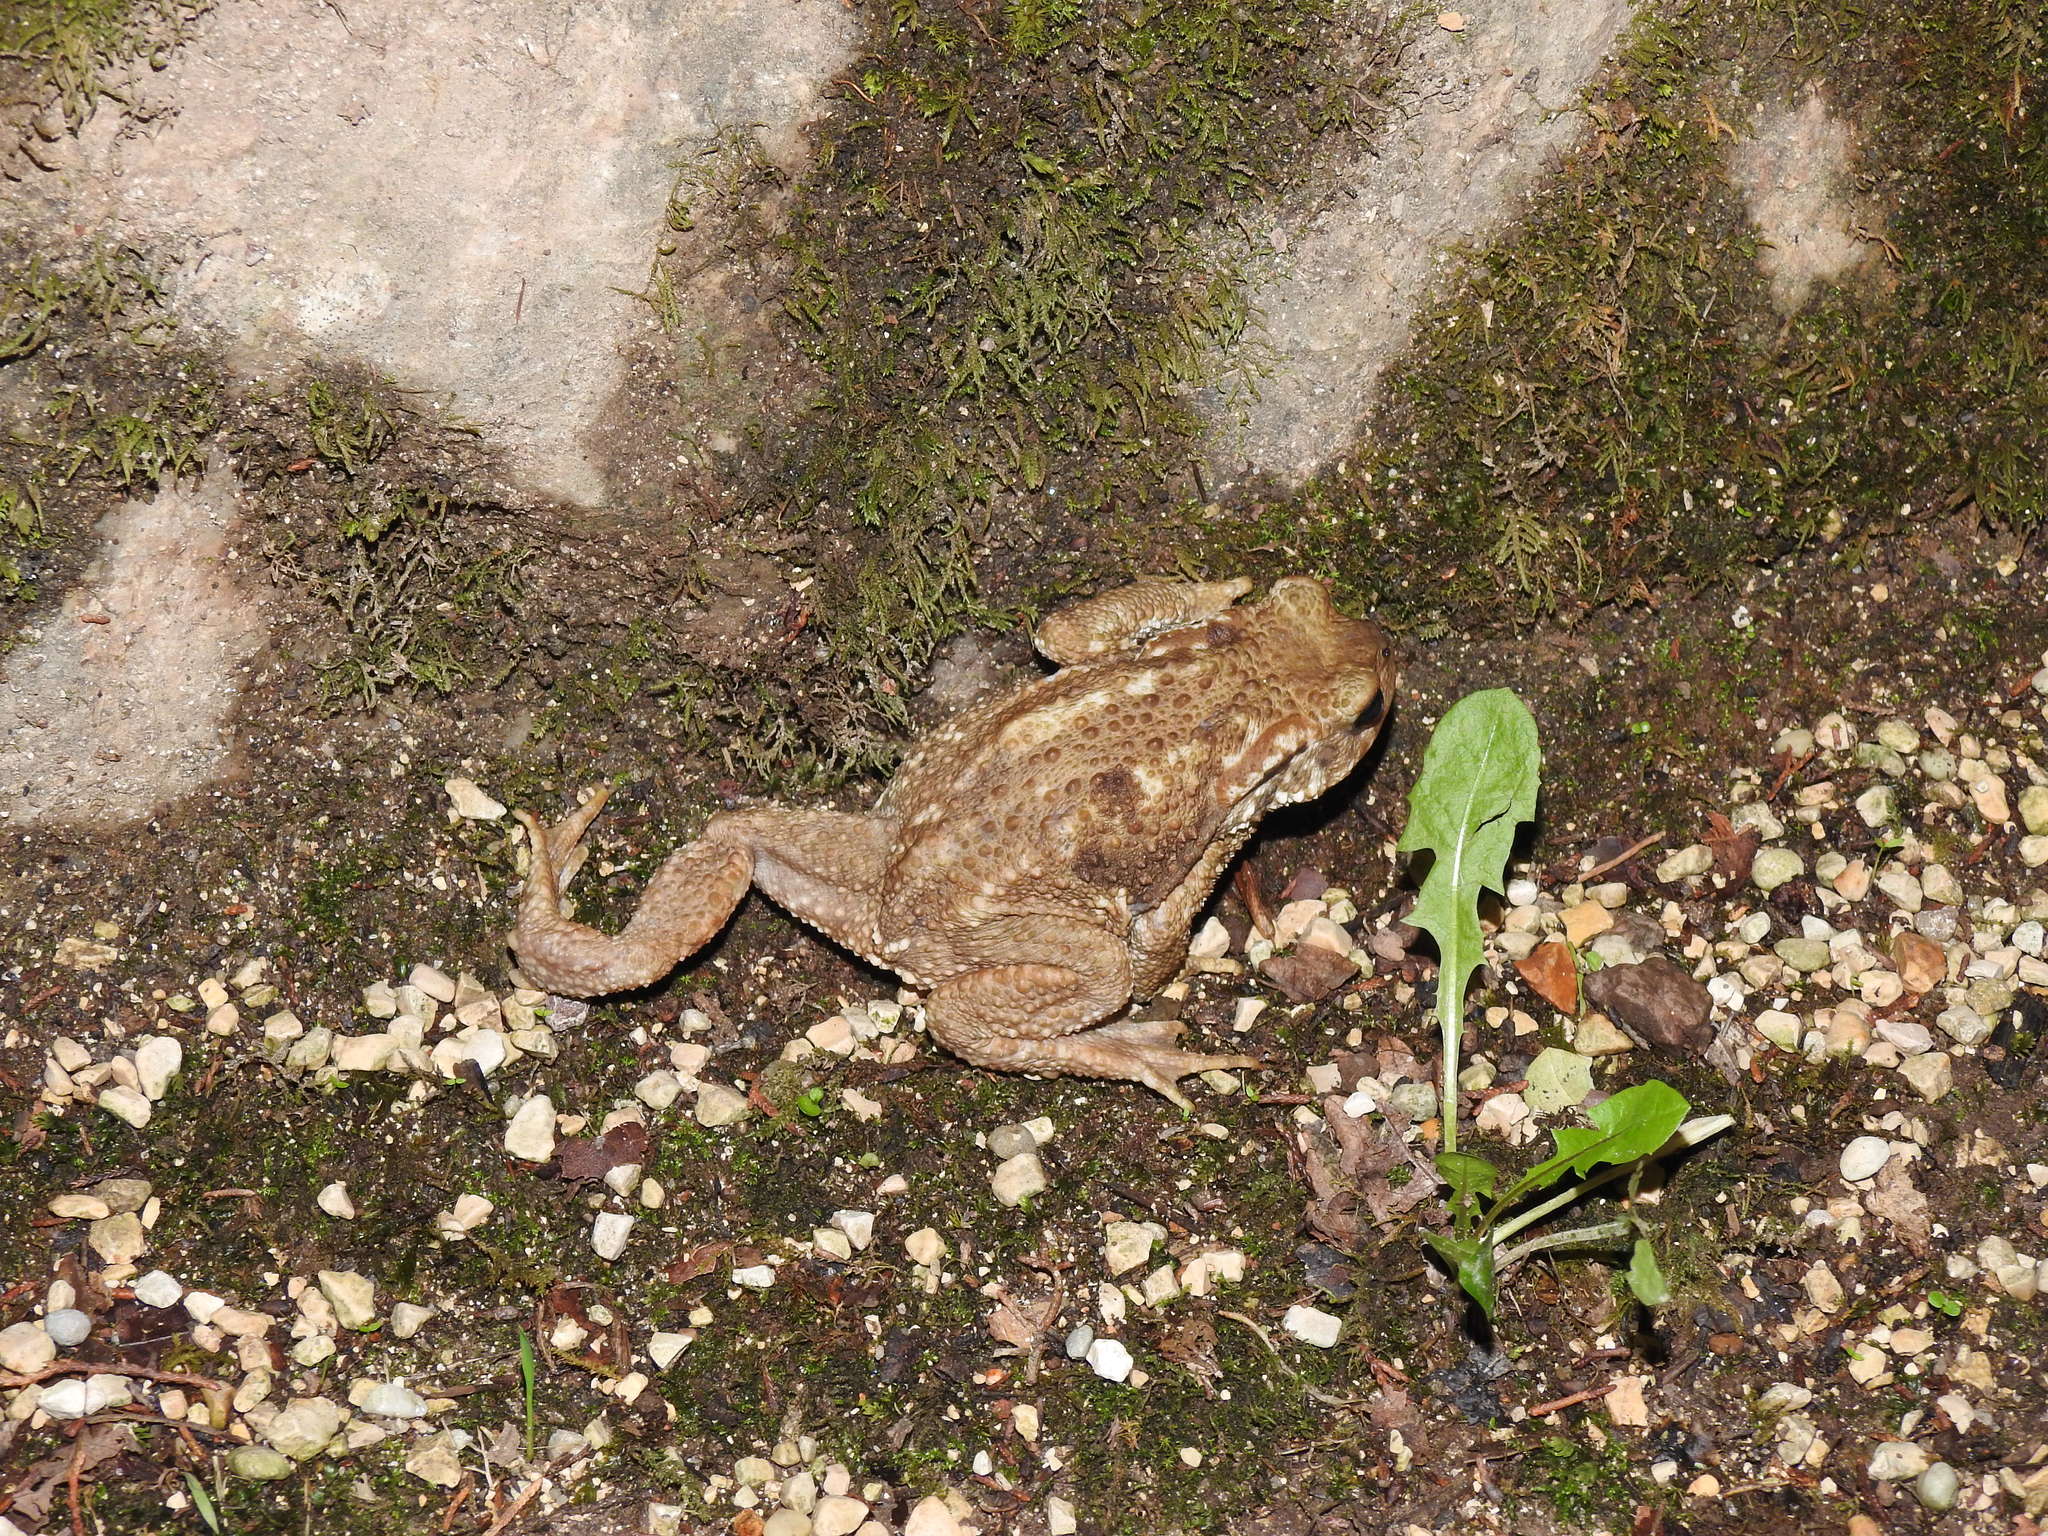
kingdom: Animalia
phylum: Chordata
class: Amphibia
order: Anura
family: Bufonidae
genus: Bufo
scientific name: Bufo spinosus
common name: Western common toad
